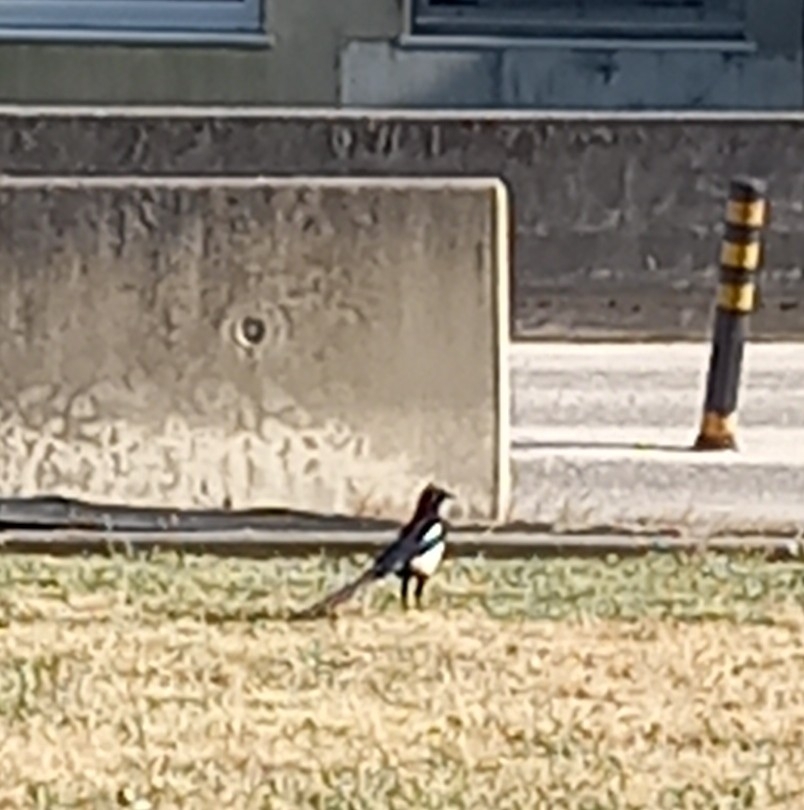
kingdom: Animalia
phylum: Chordata
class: Aves
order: Passeriformes
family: Corvidae
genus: Pica
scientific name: Pica pica
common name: Eurasian magpie
